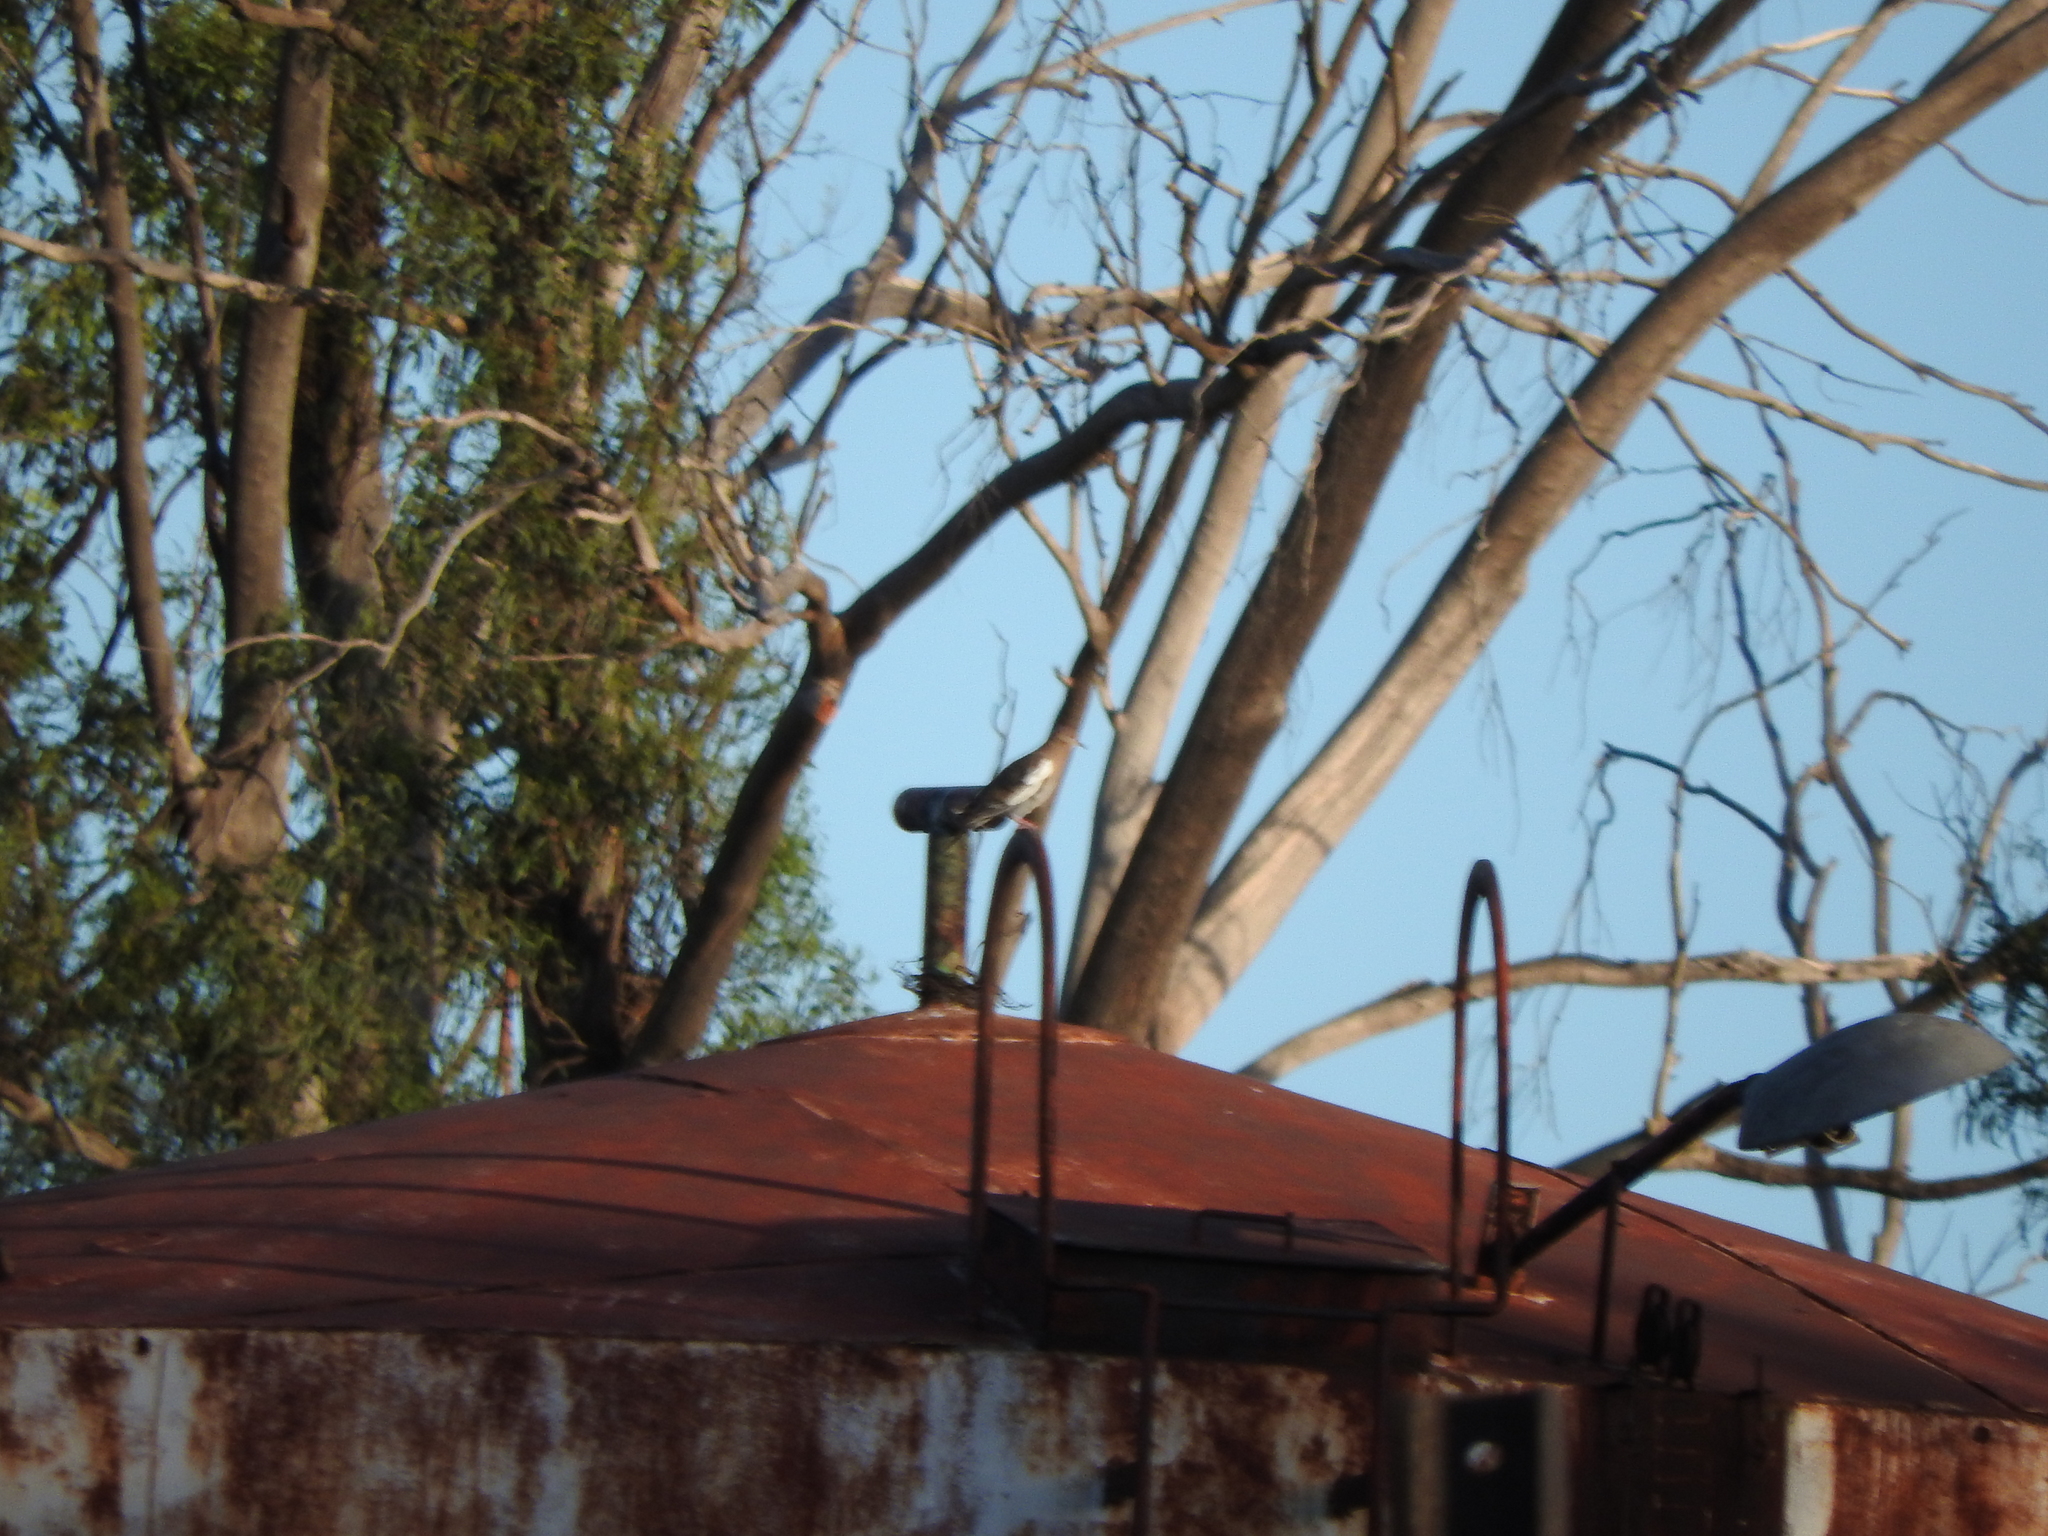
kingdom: Animalia
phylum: Chordata
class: Aves
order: Columbiformes
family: Columbidae
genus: Zenaida
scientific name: Zenaida asiatica
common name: White-winged dove
